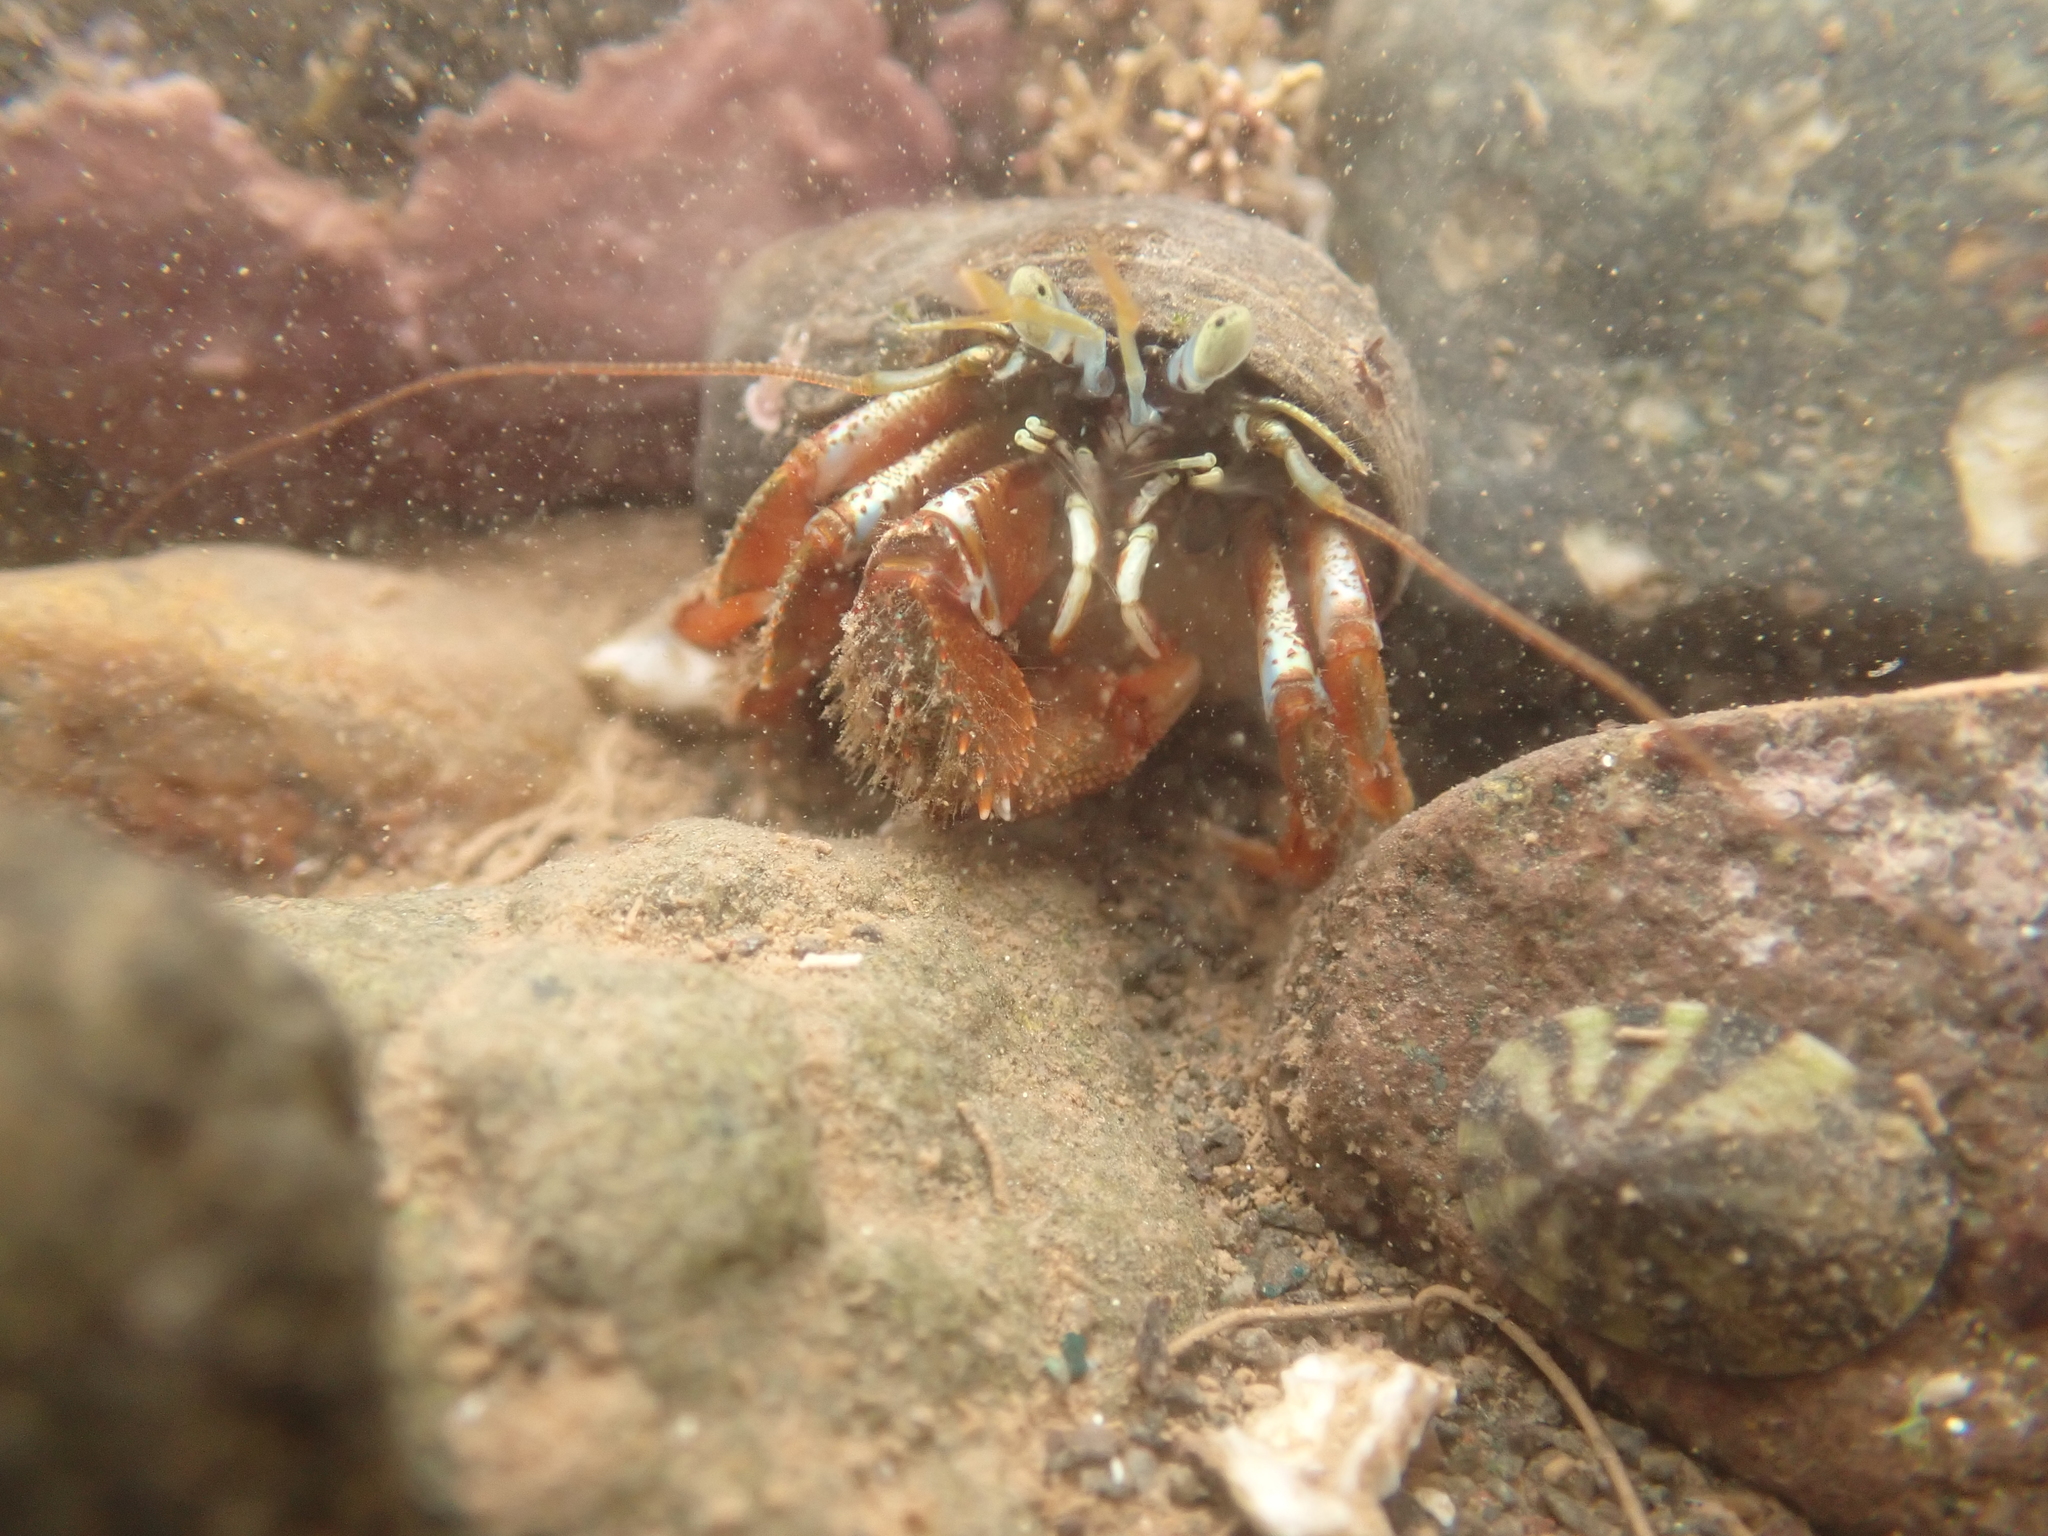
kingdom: Animalia
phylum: Arthropoda
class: Malacostraca
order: Decapoda
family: Paguridae
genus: Pagurus
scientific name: Pagurus acadianus
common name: Acadian hermit crab
